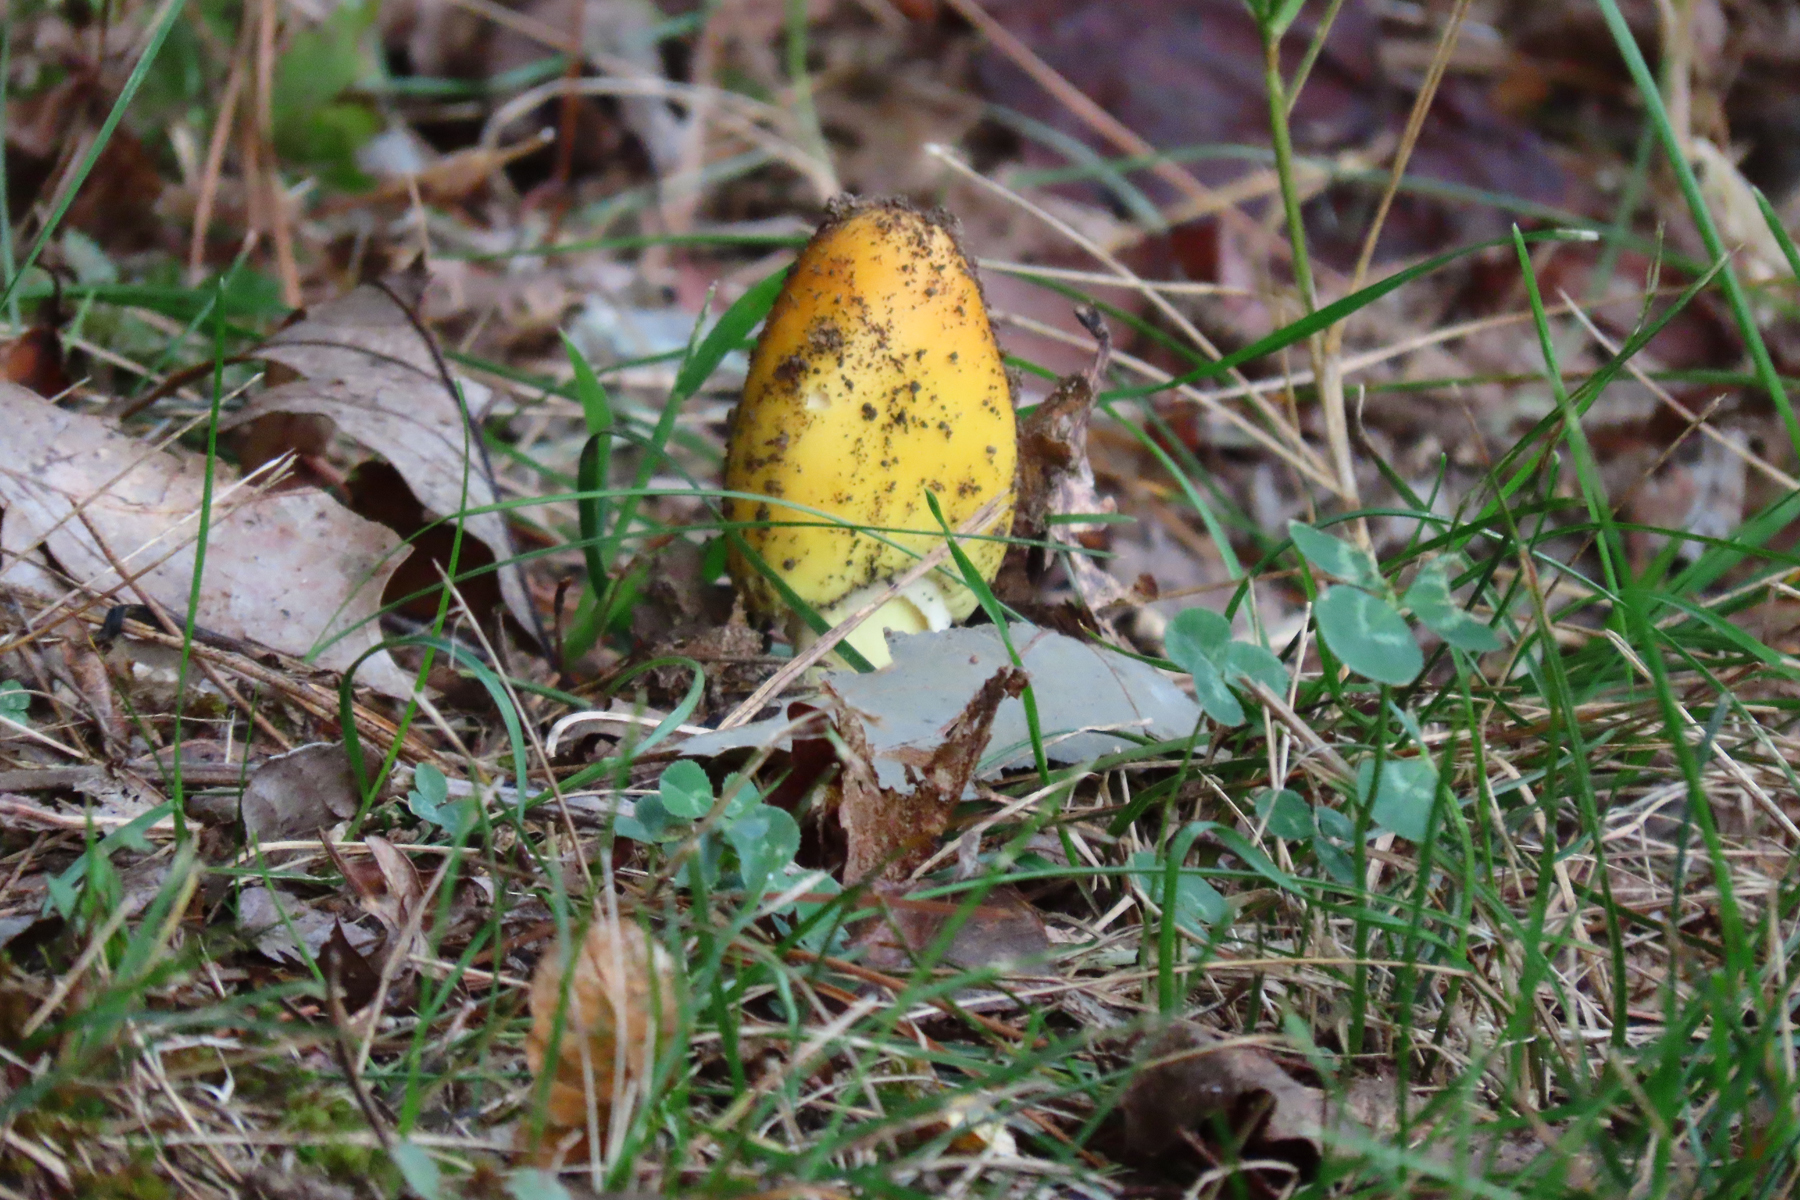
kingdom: Fungi
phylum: Basidiomycota
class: Agaricomycetes
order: Agaricales
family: Amanitaceae
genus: Amanita
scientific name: Amanita flavorubens
